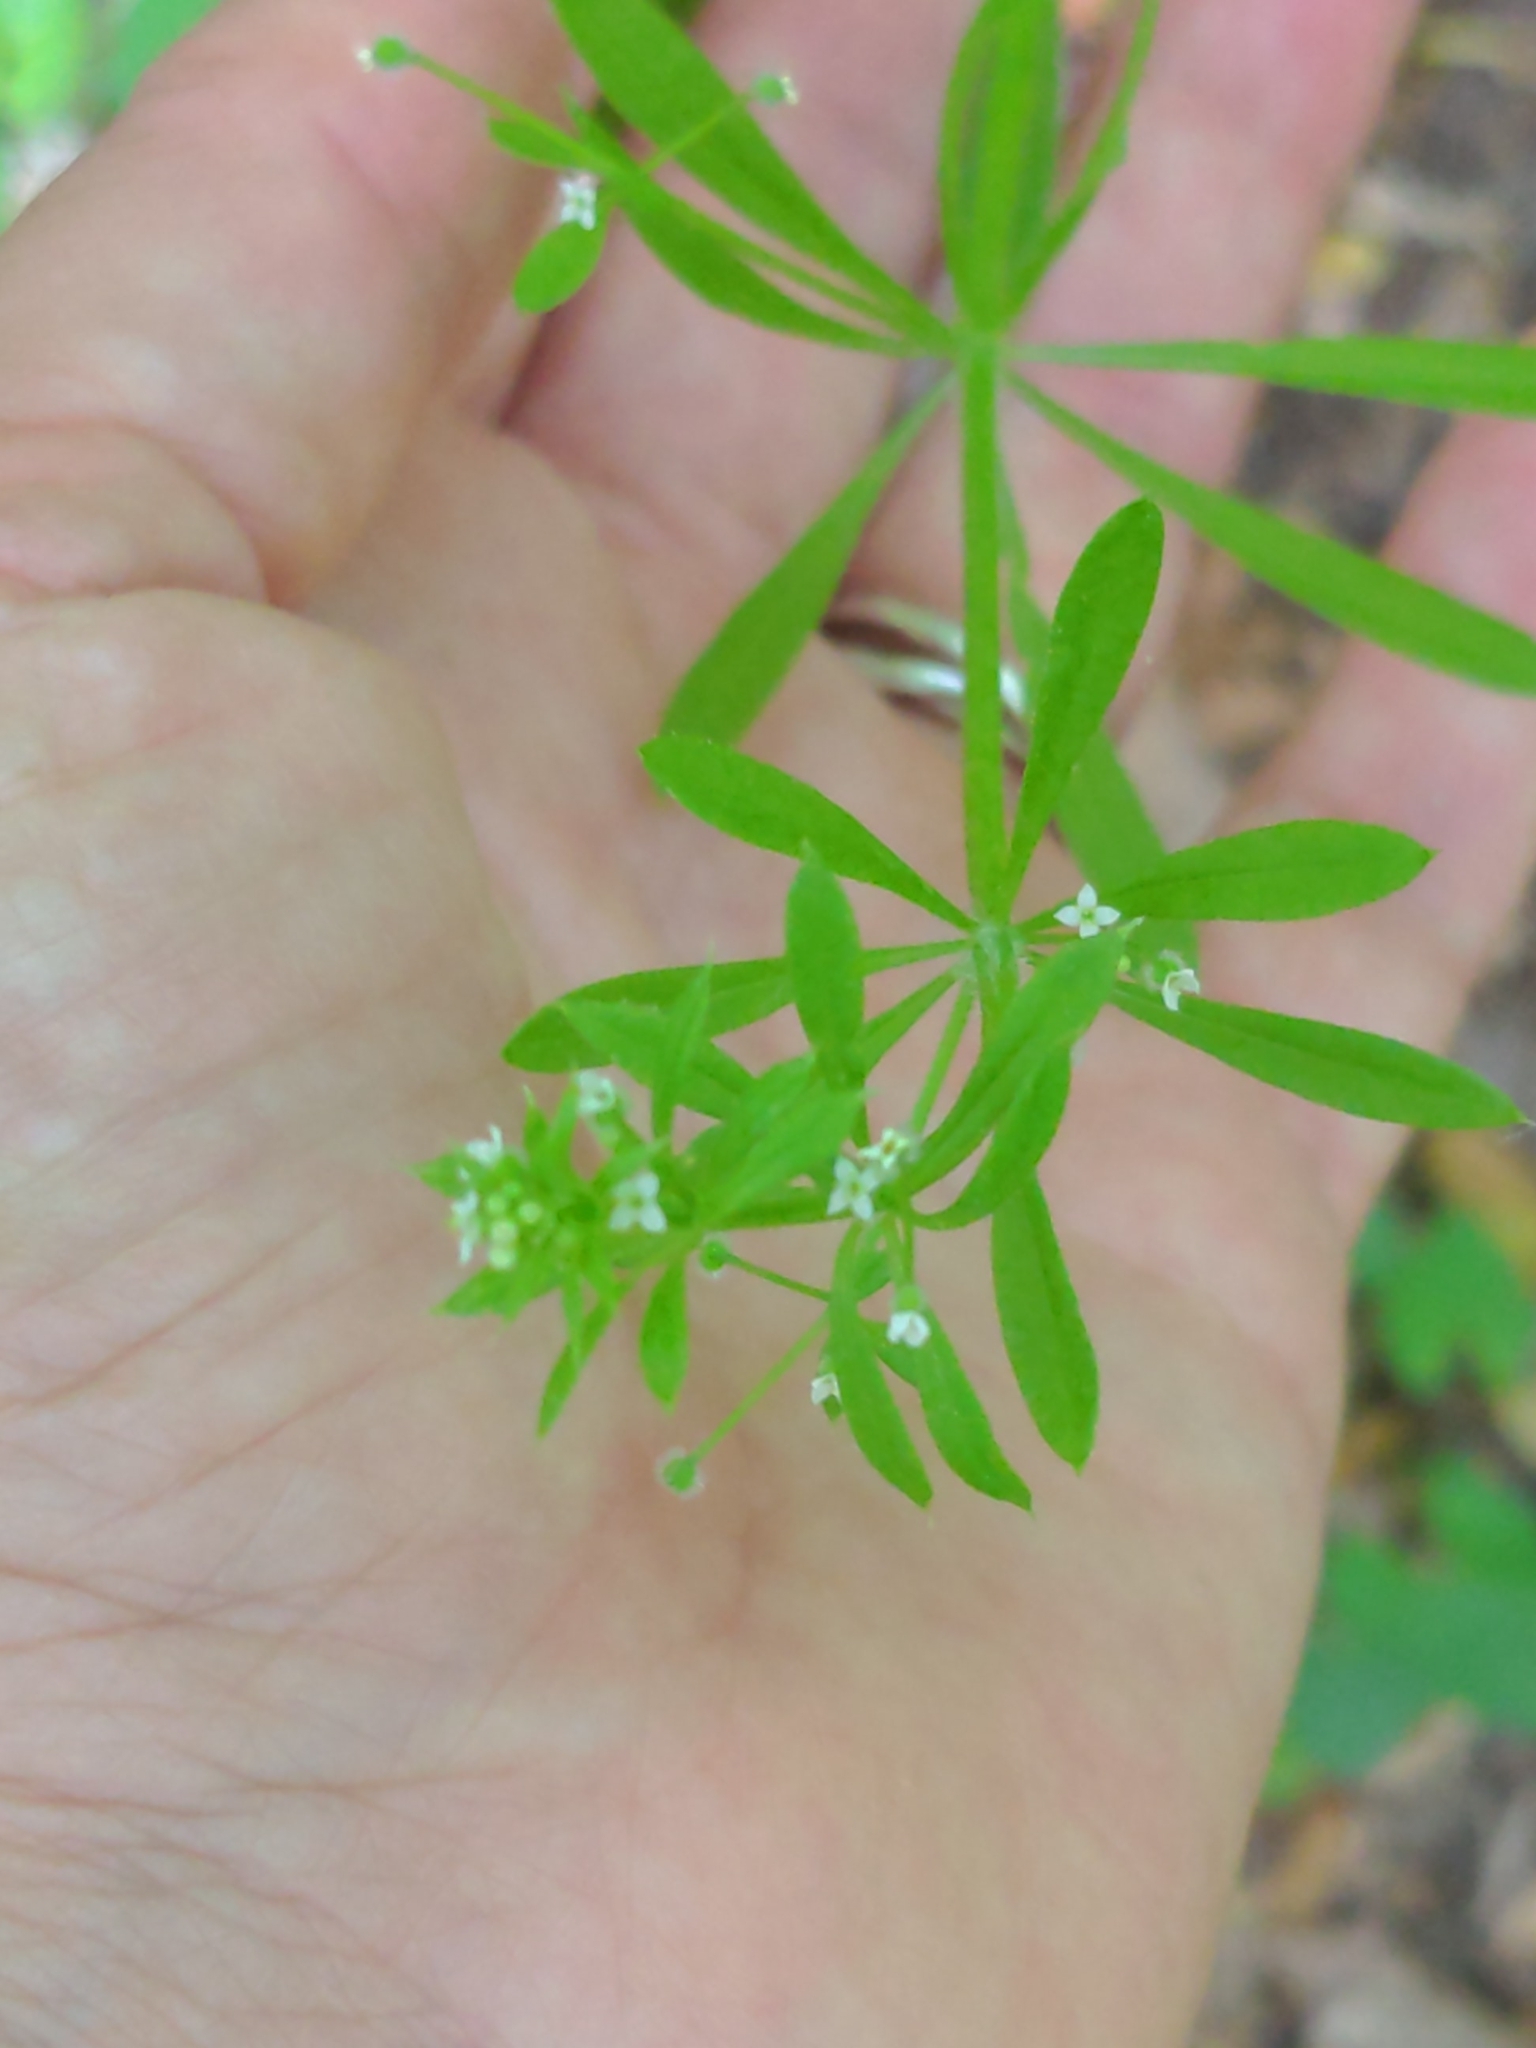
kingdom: Plantae
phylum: Tracheophyta
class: Magnoliopsida
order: Gentianales
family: Rubiaceae
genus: Galium
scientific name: Galium aparine
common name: Cleavers
